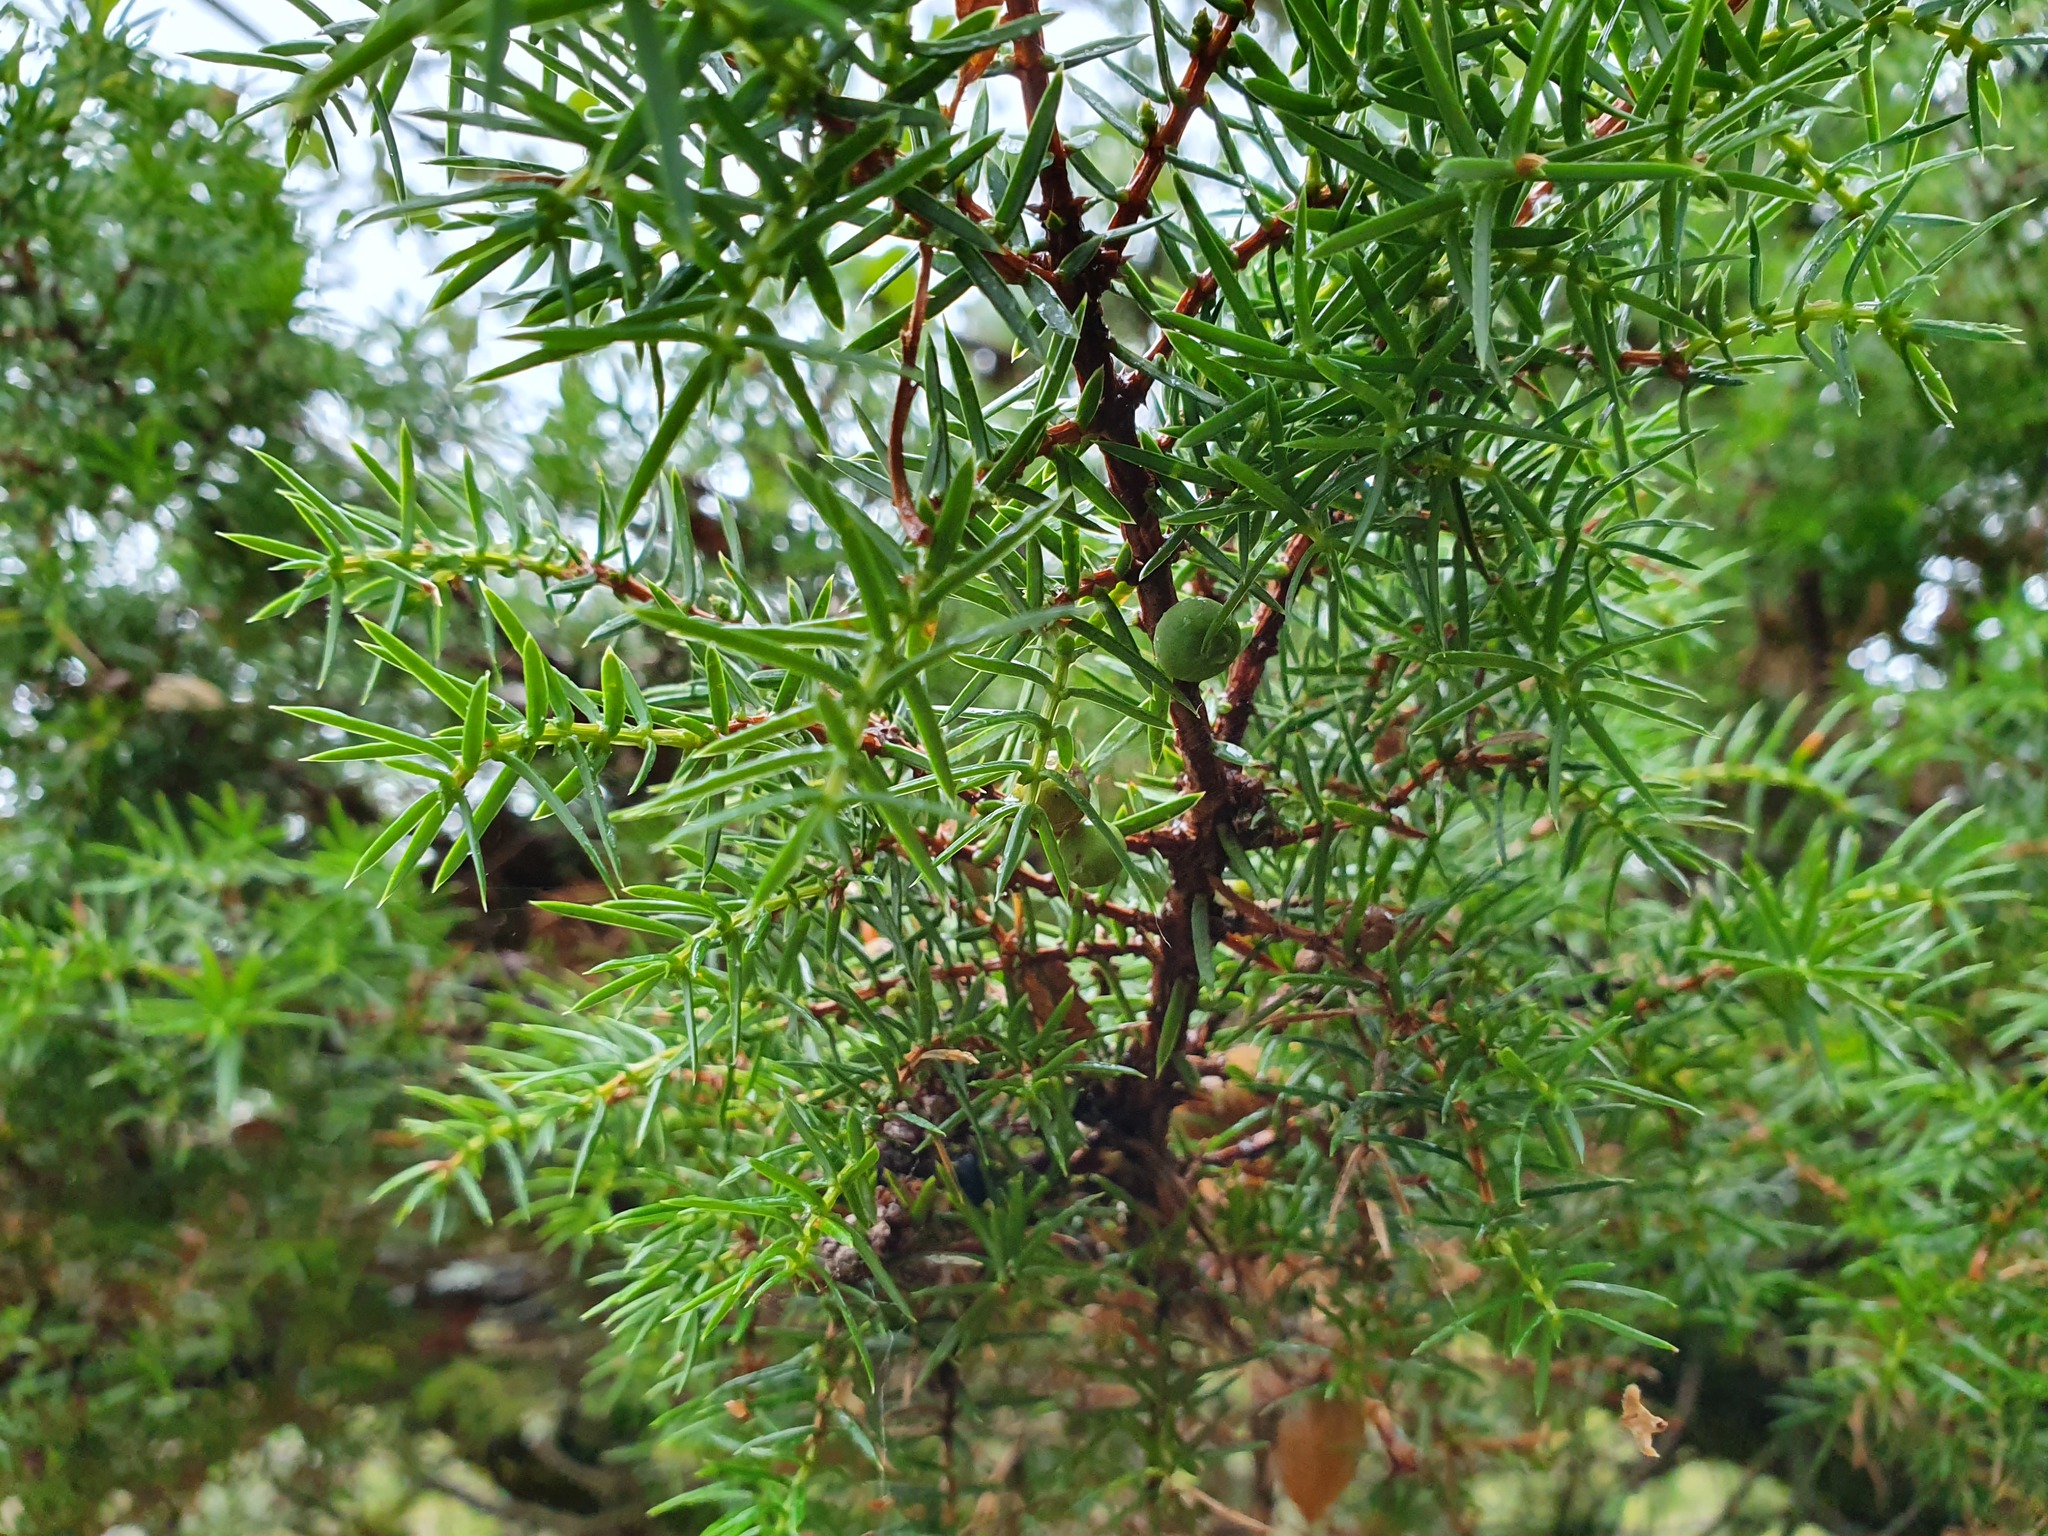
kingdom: Plantae
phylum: Tracheophyta
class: Pinopsida
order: Pinales
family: Cupressaceae
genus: Juniperus
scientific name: Juniperus communis
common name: Common juniper
